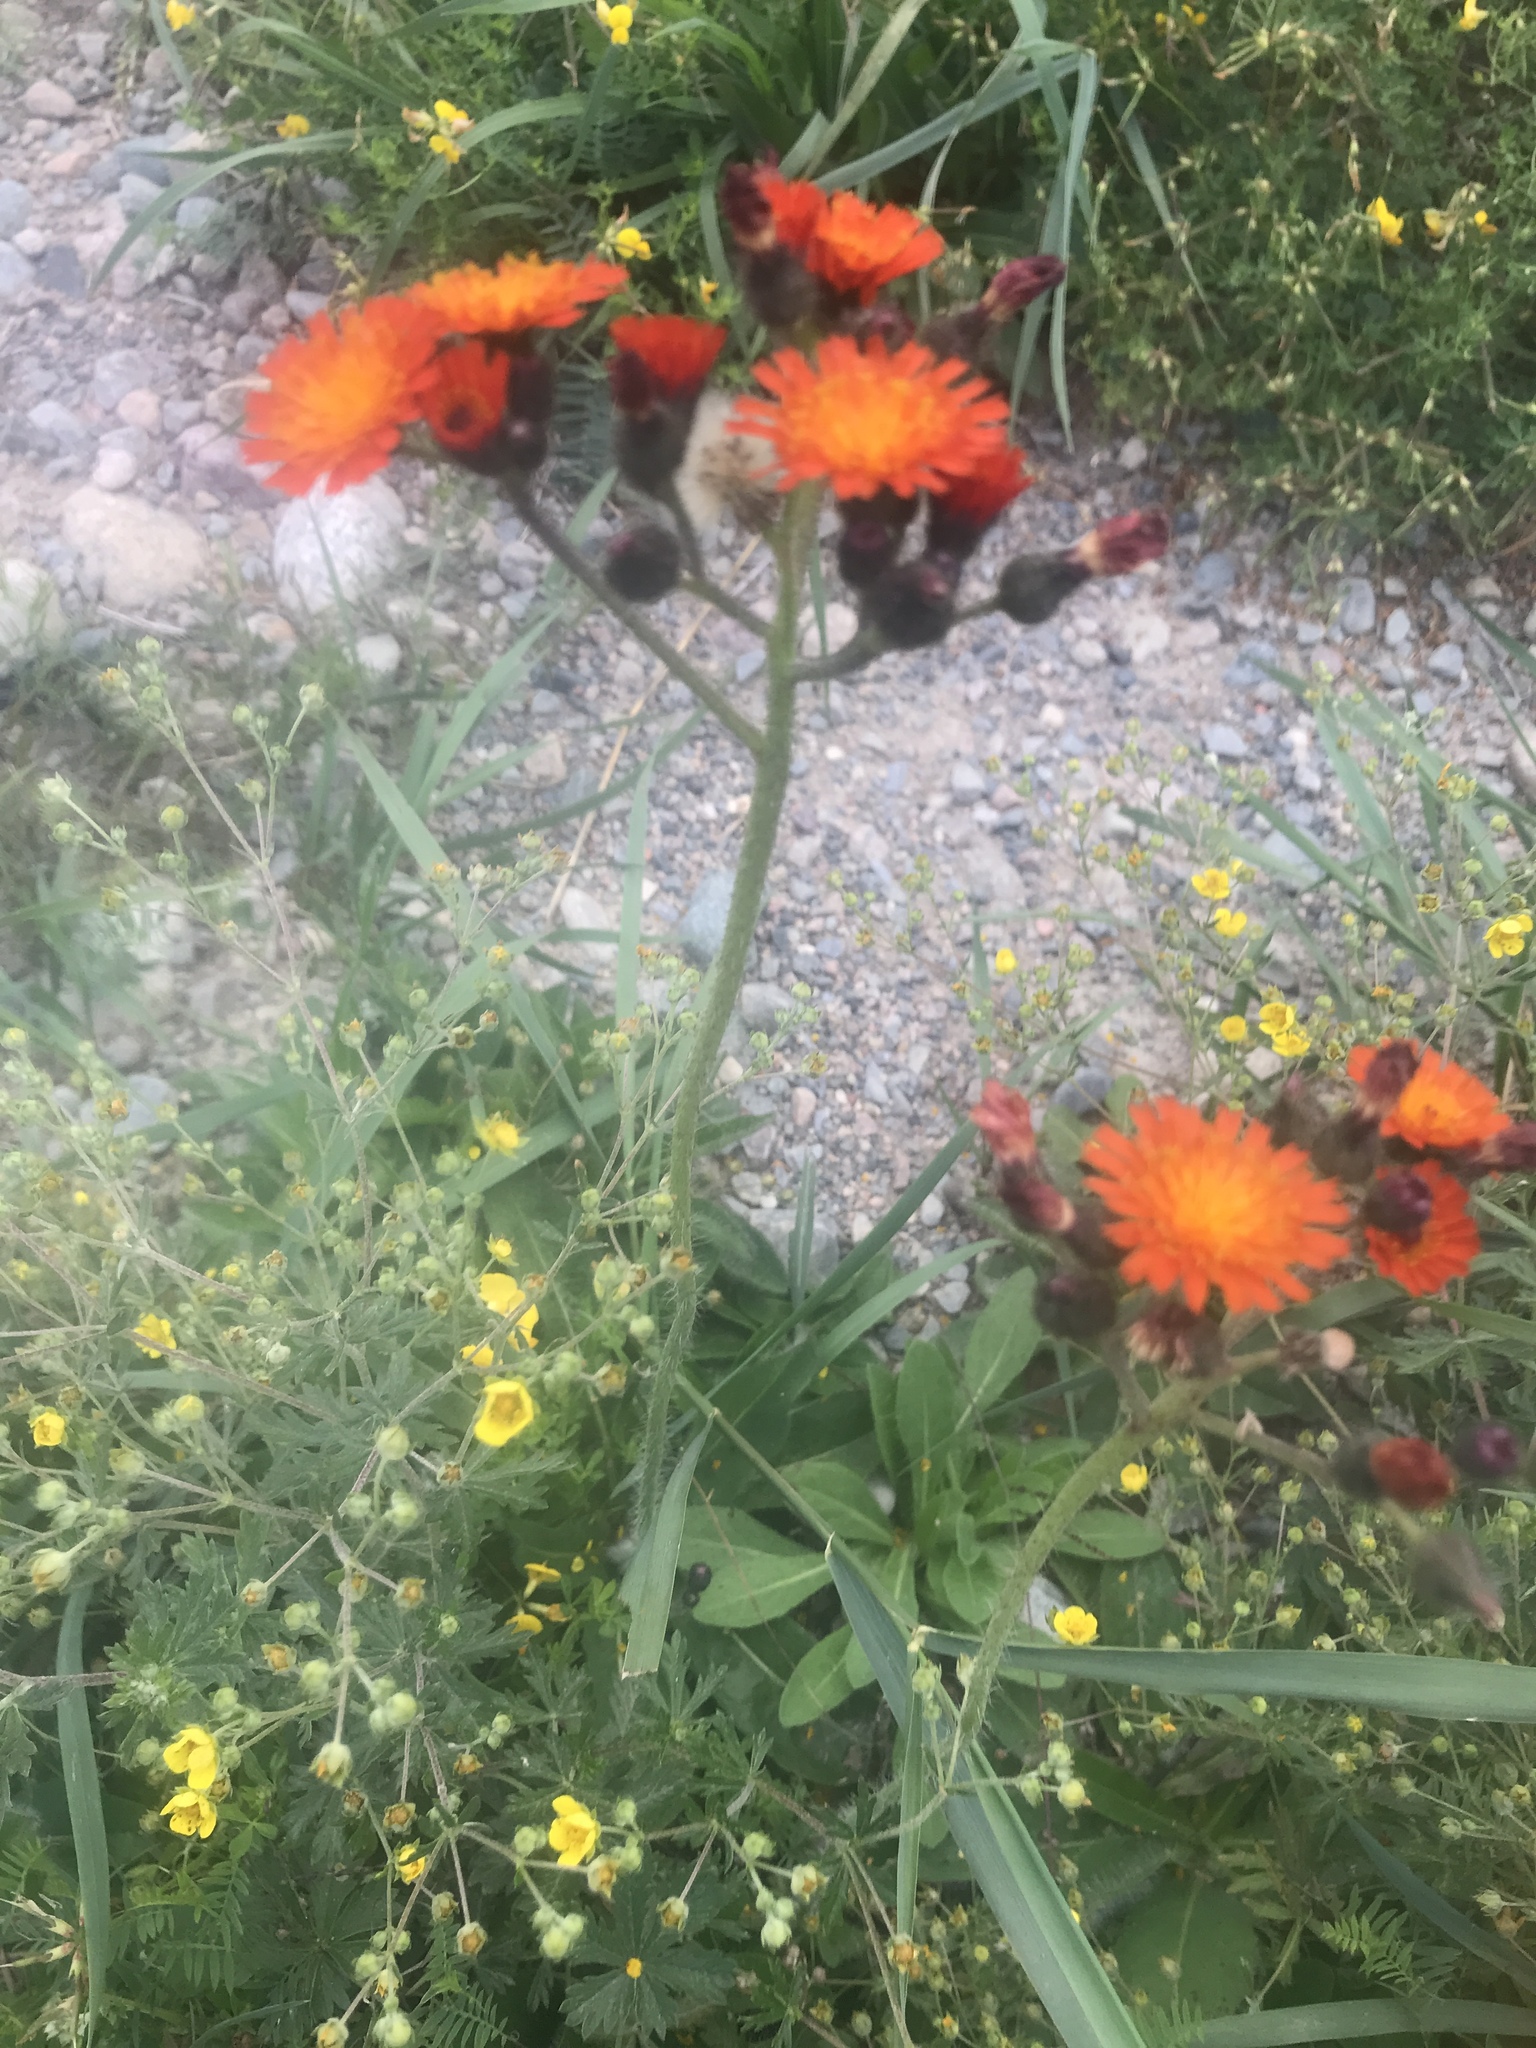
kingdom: Plantae
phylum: Tracheophyta
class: Magnoliopsida
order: Asterales
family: Asteraceae
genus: Pilosella
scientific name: Pilosella aurantiaca
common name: Fox-and-cubs
